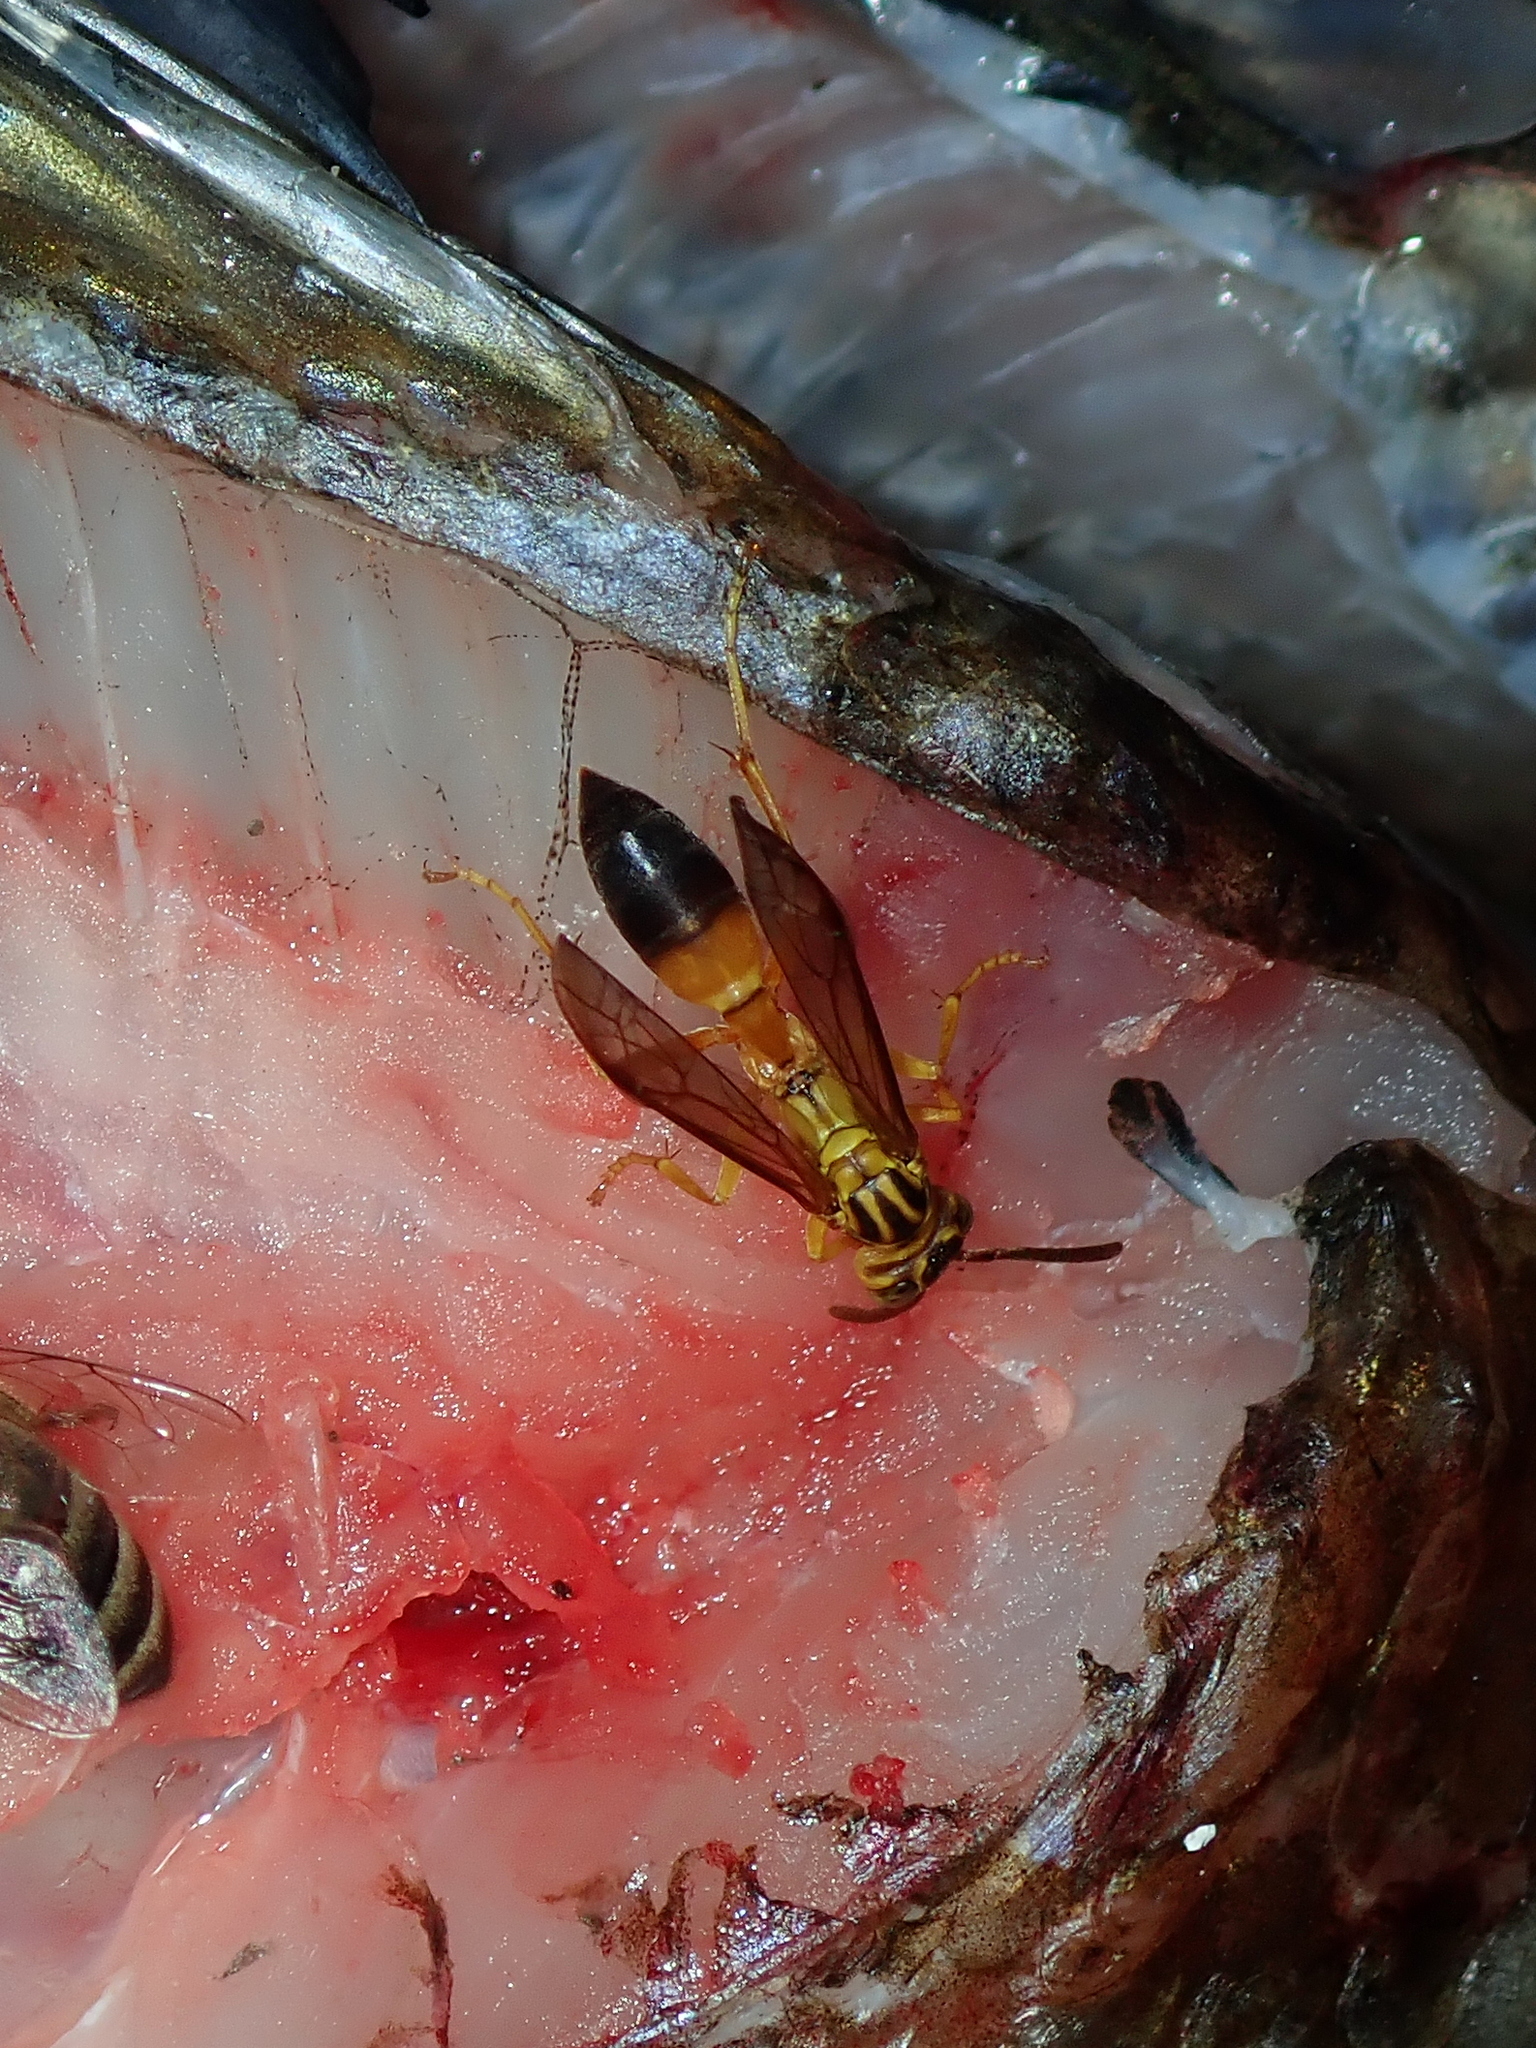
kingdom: Animalia
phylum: Arthropoda
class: Insecta
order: Hymenoptera
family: Vespidae
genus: Agelaia
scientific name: Agelaia pallipes
